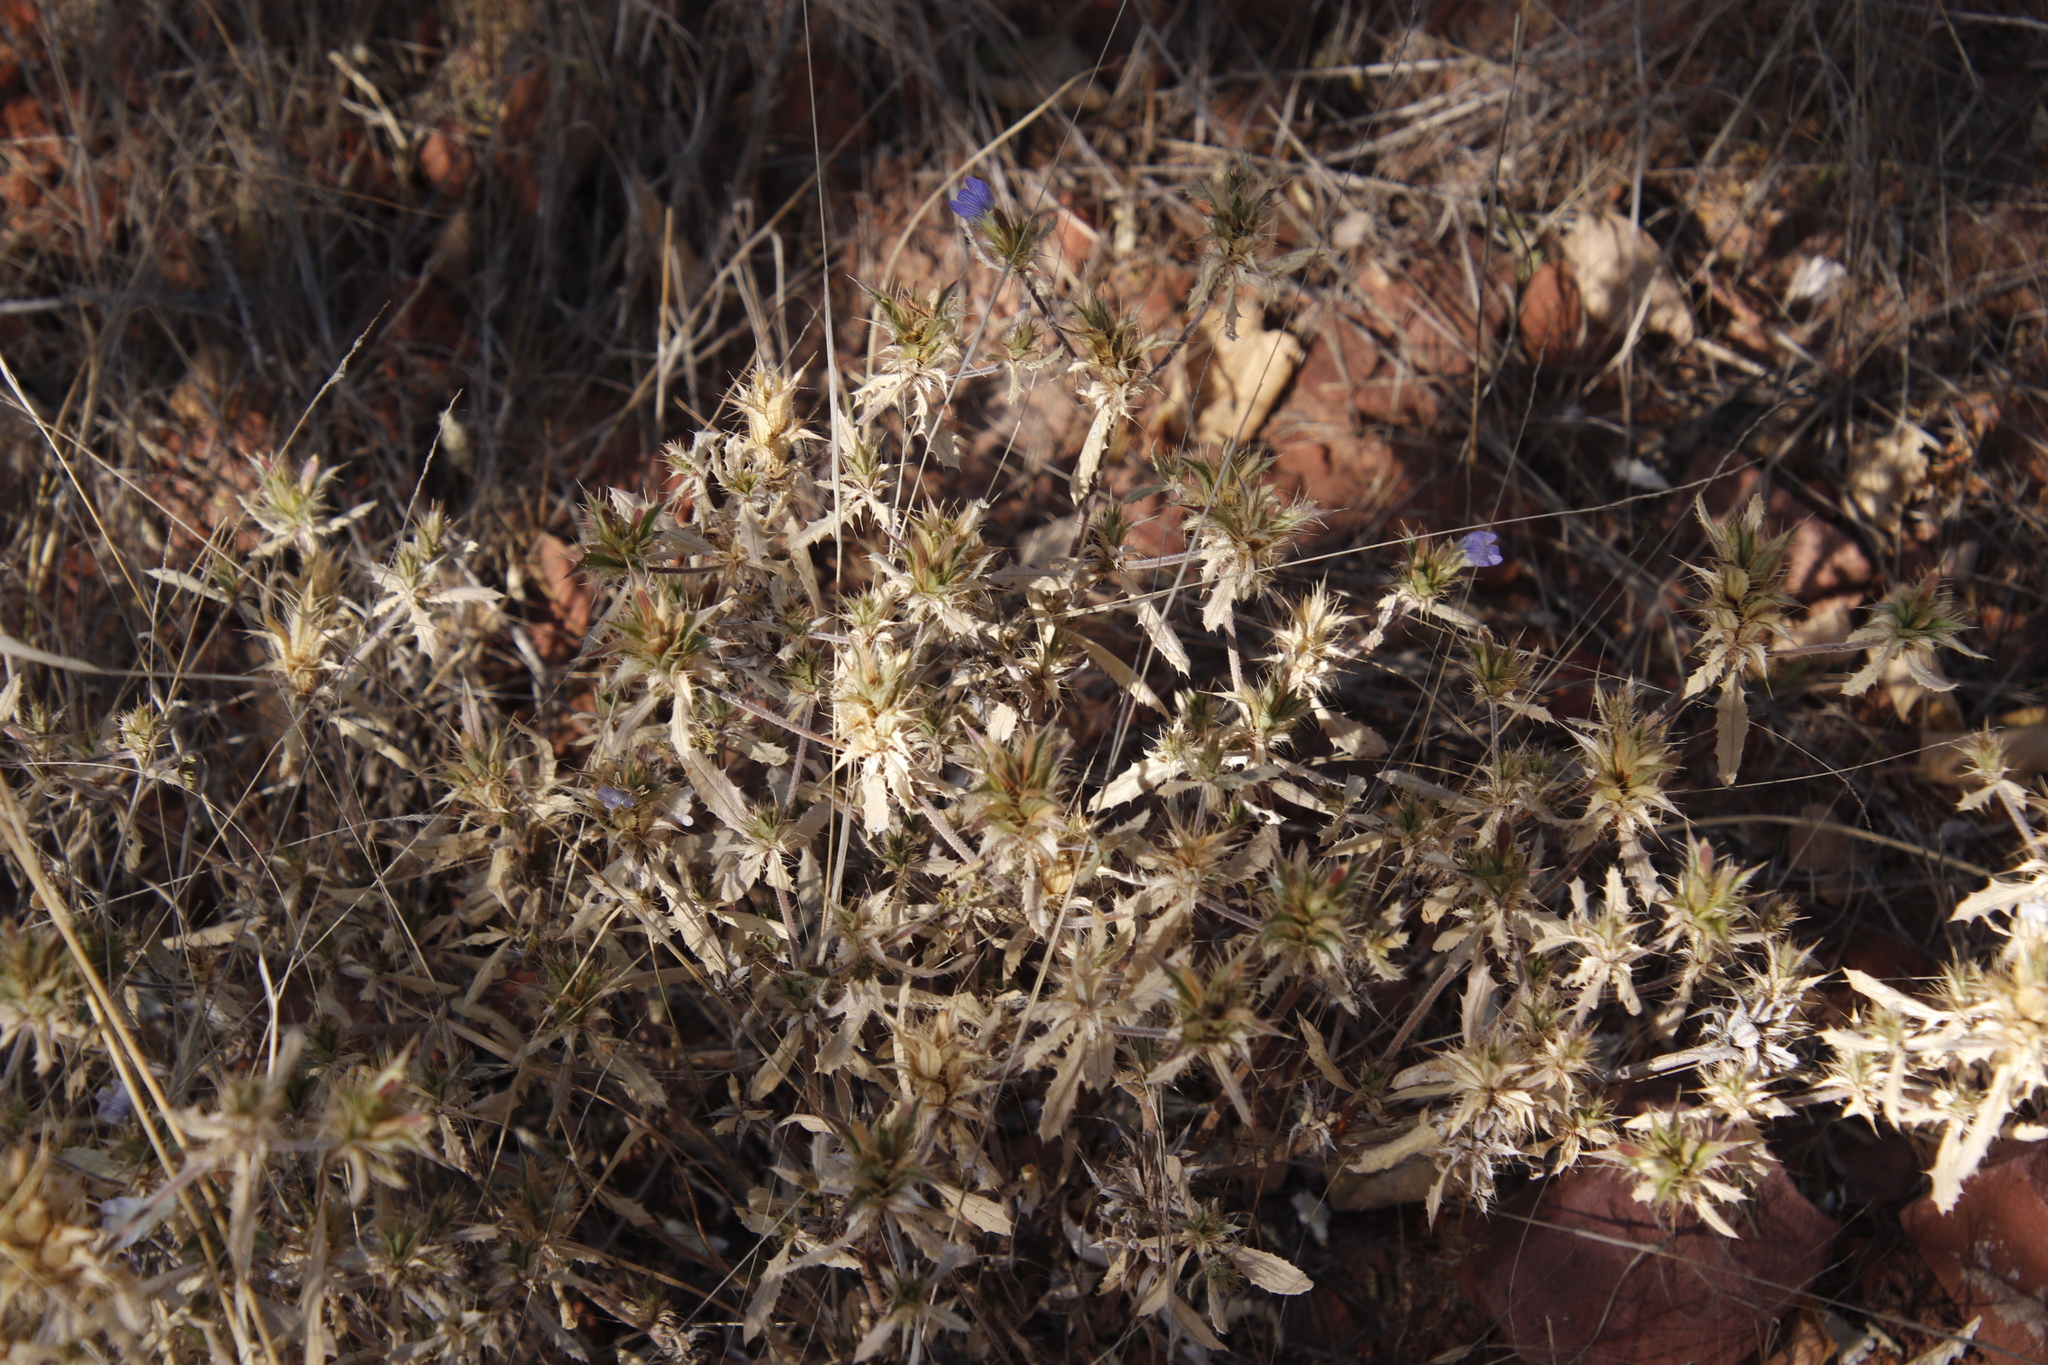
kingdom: Plantae
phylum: Tracheophyta
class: Magnoliopsida
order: Lamiales
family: Acanthaceae
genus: Blepharis
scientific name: Blepharis obmitrata
